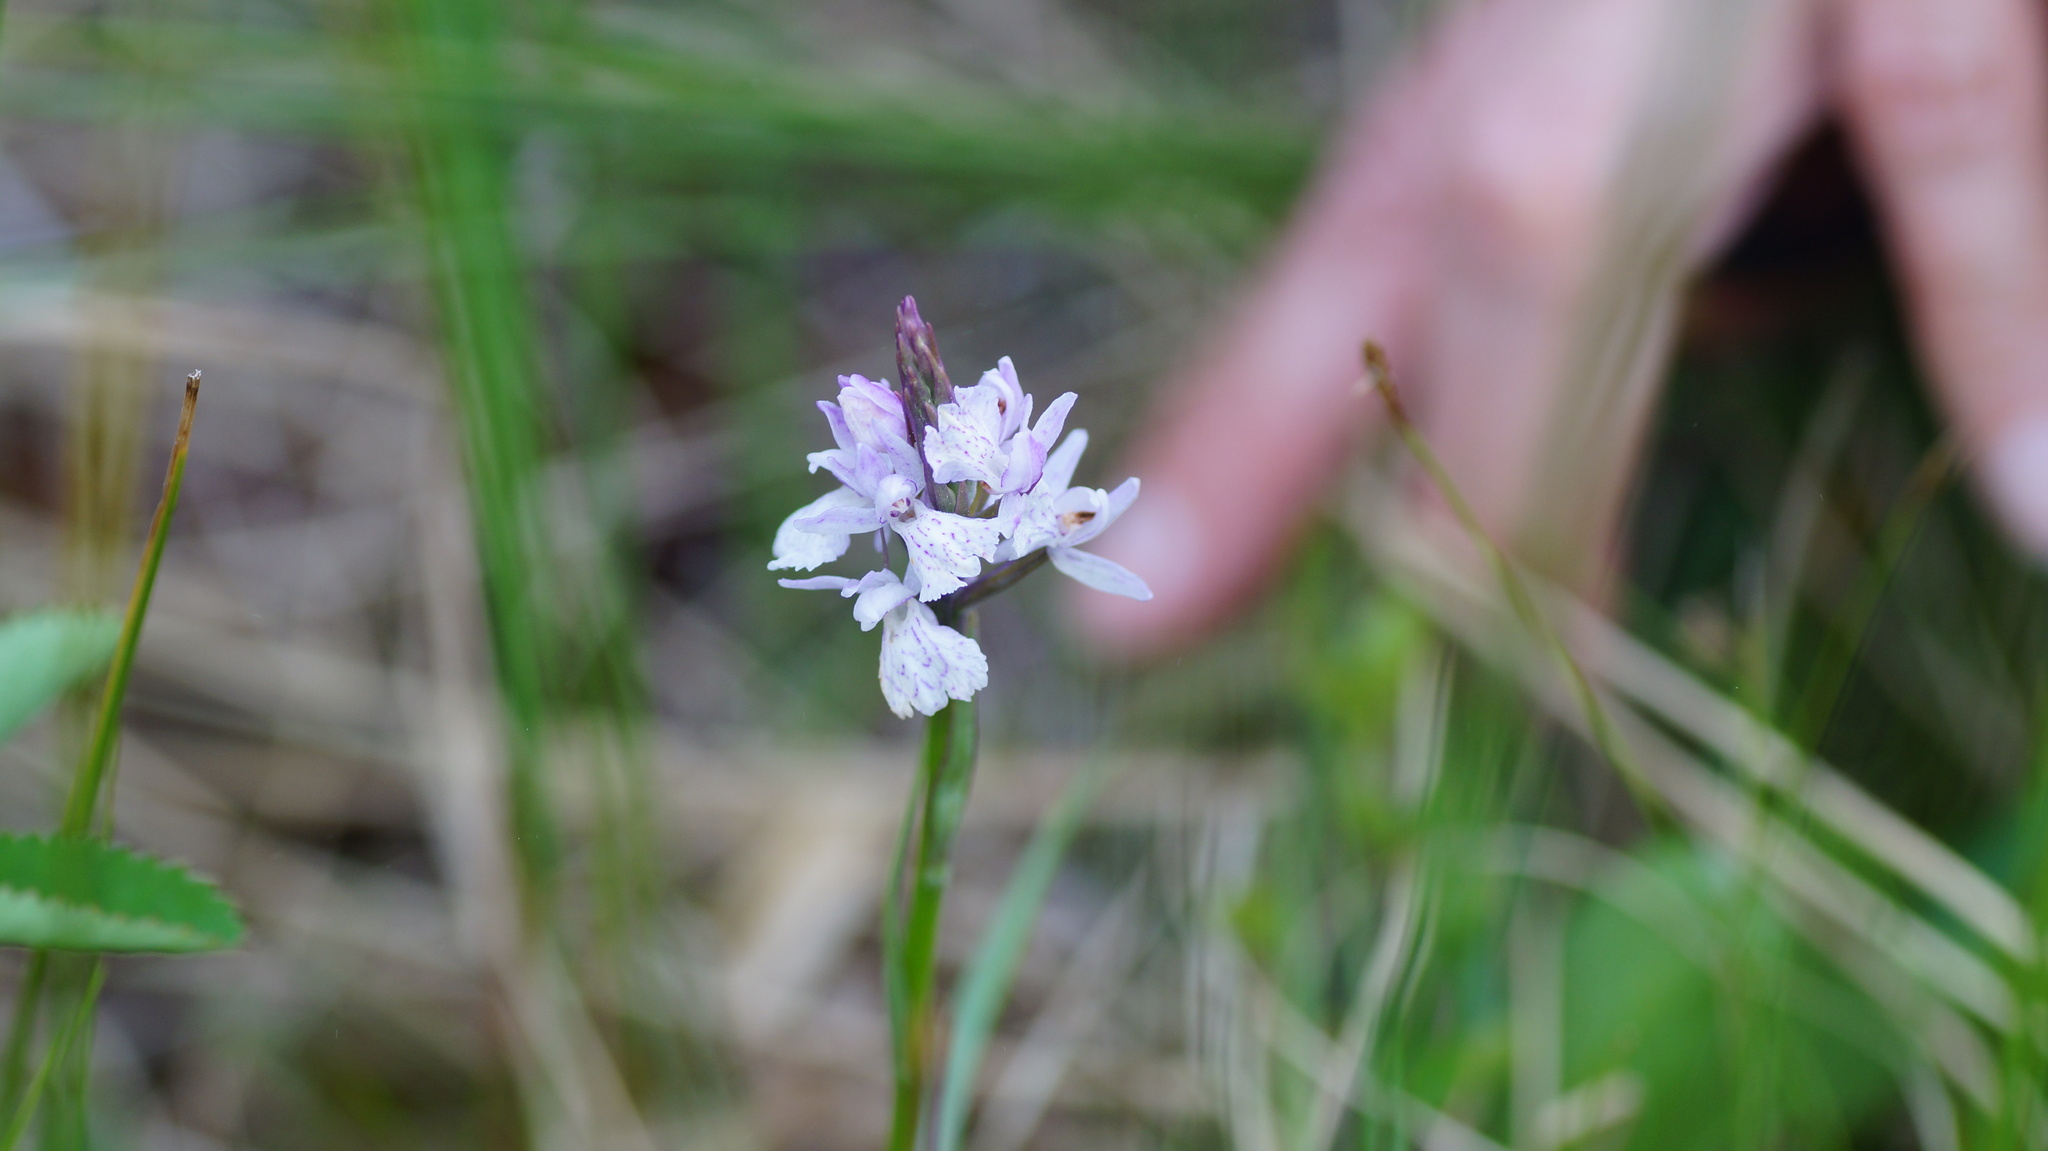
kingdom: Plantae
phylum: Tracheophyta
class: Liliopsida
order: Asparagales
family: Orchidaceae
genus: Dactylorhiza
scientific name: Dactylorhiza maculata
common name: Heath spotted-orchid
